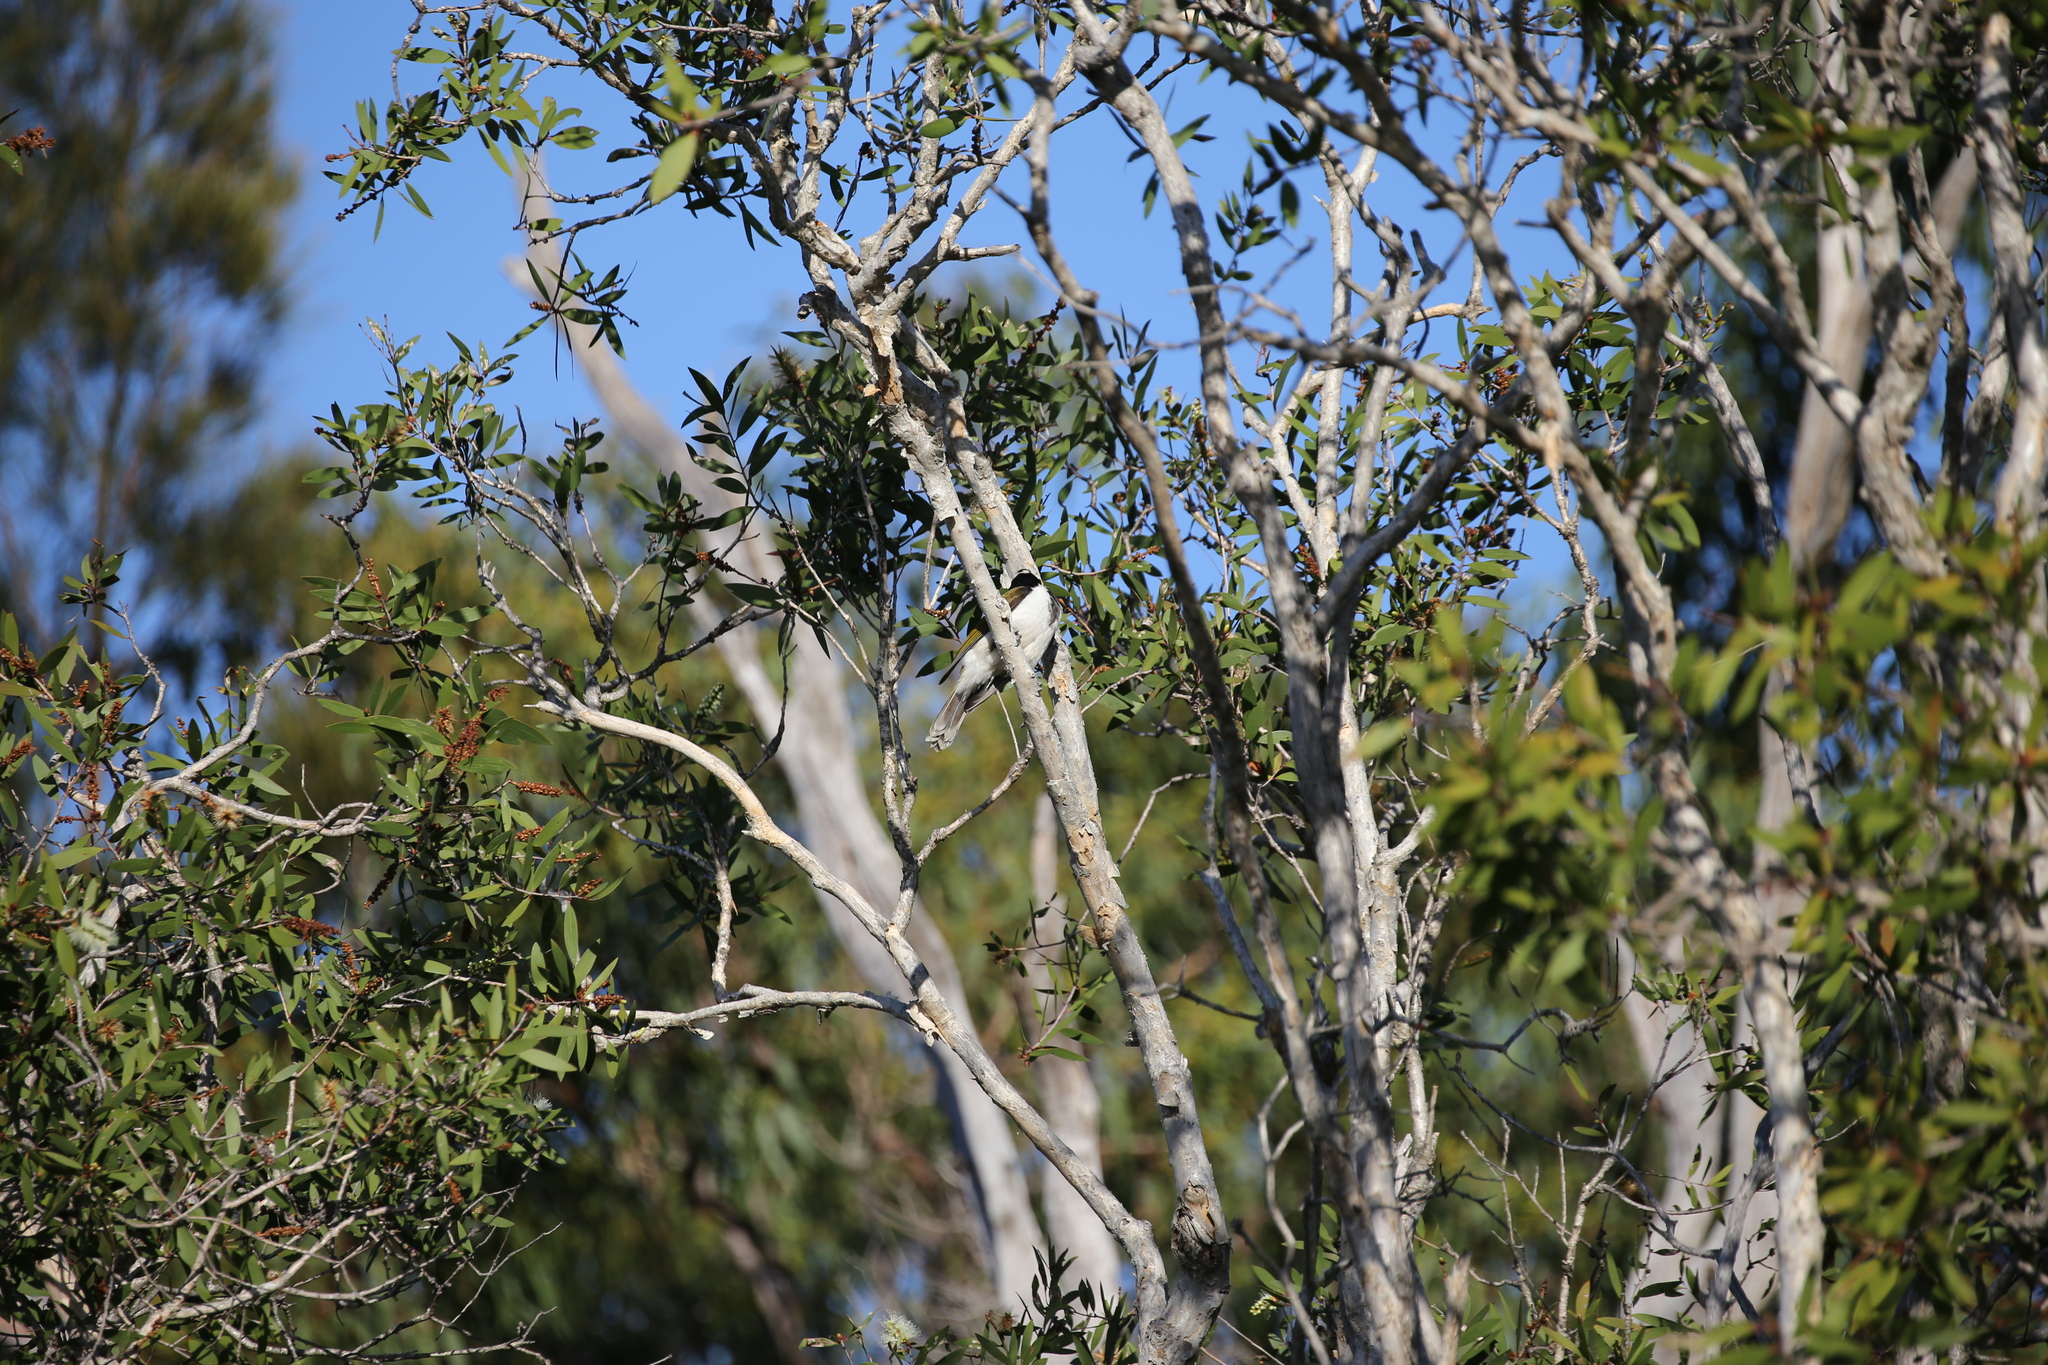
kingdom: Animalia
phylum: Chordata
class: Aves
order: Passeriformes
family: Meliphagidae
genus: Entomyzon
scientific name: Entomyzon cyanotis
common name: Blue-faced honeyeater
